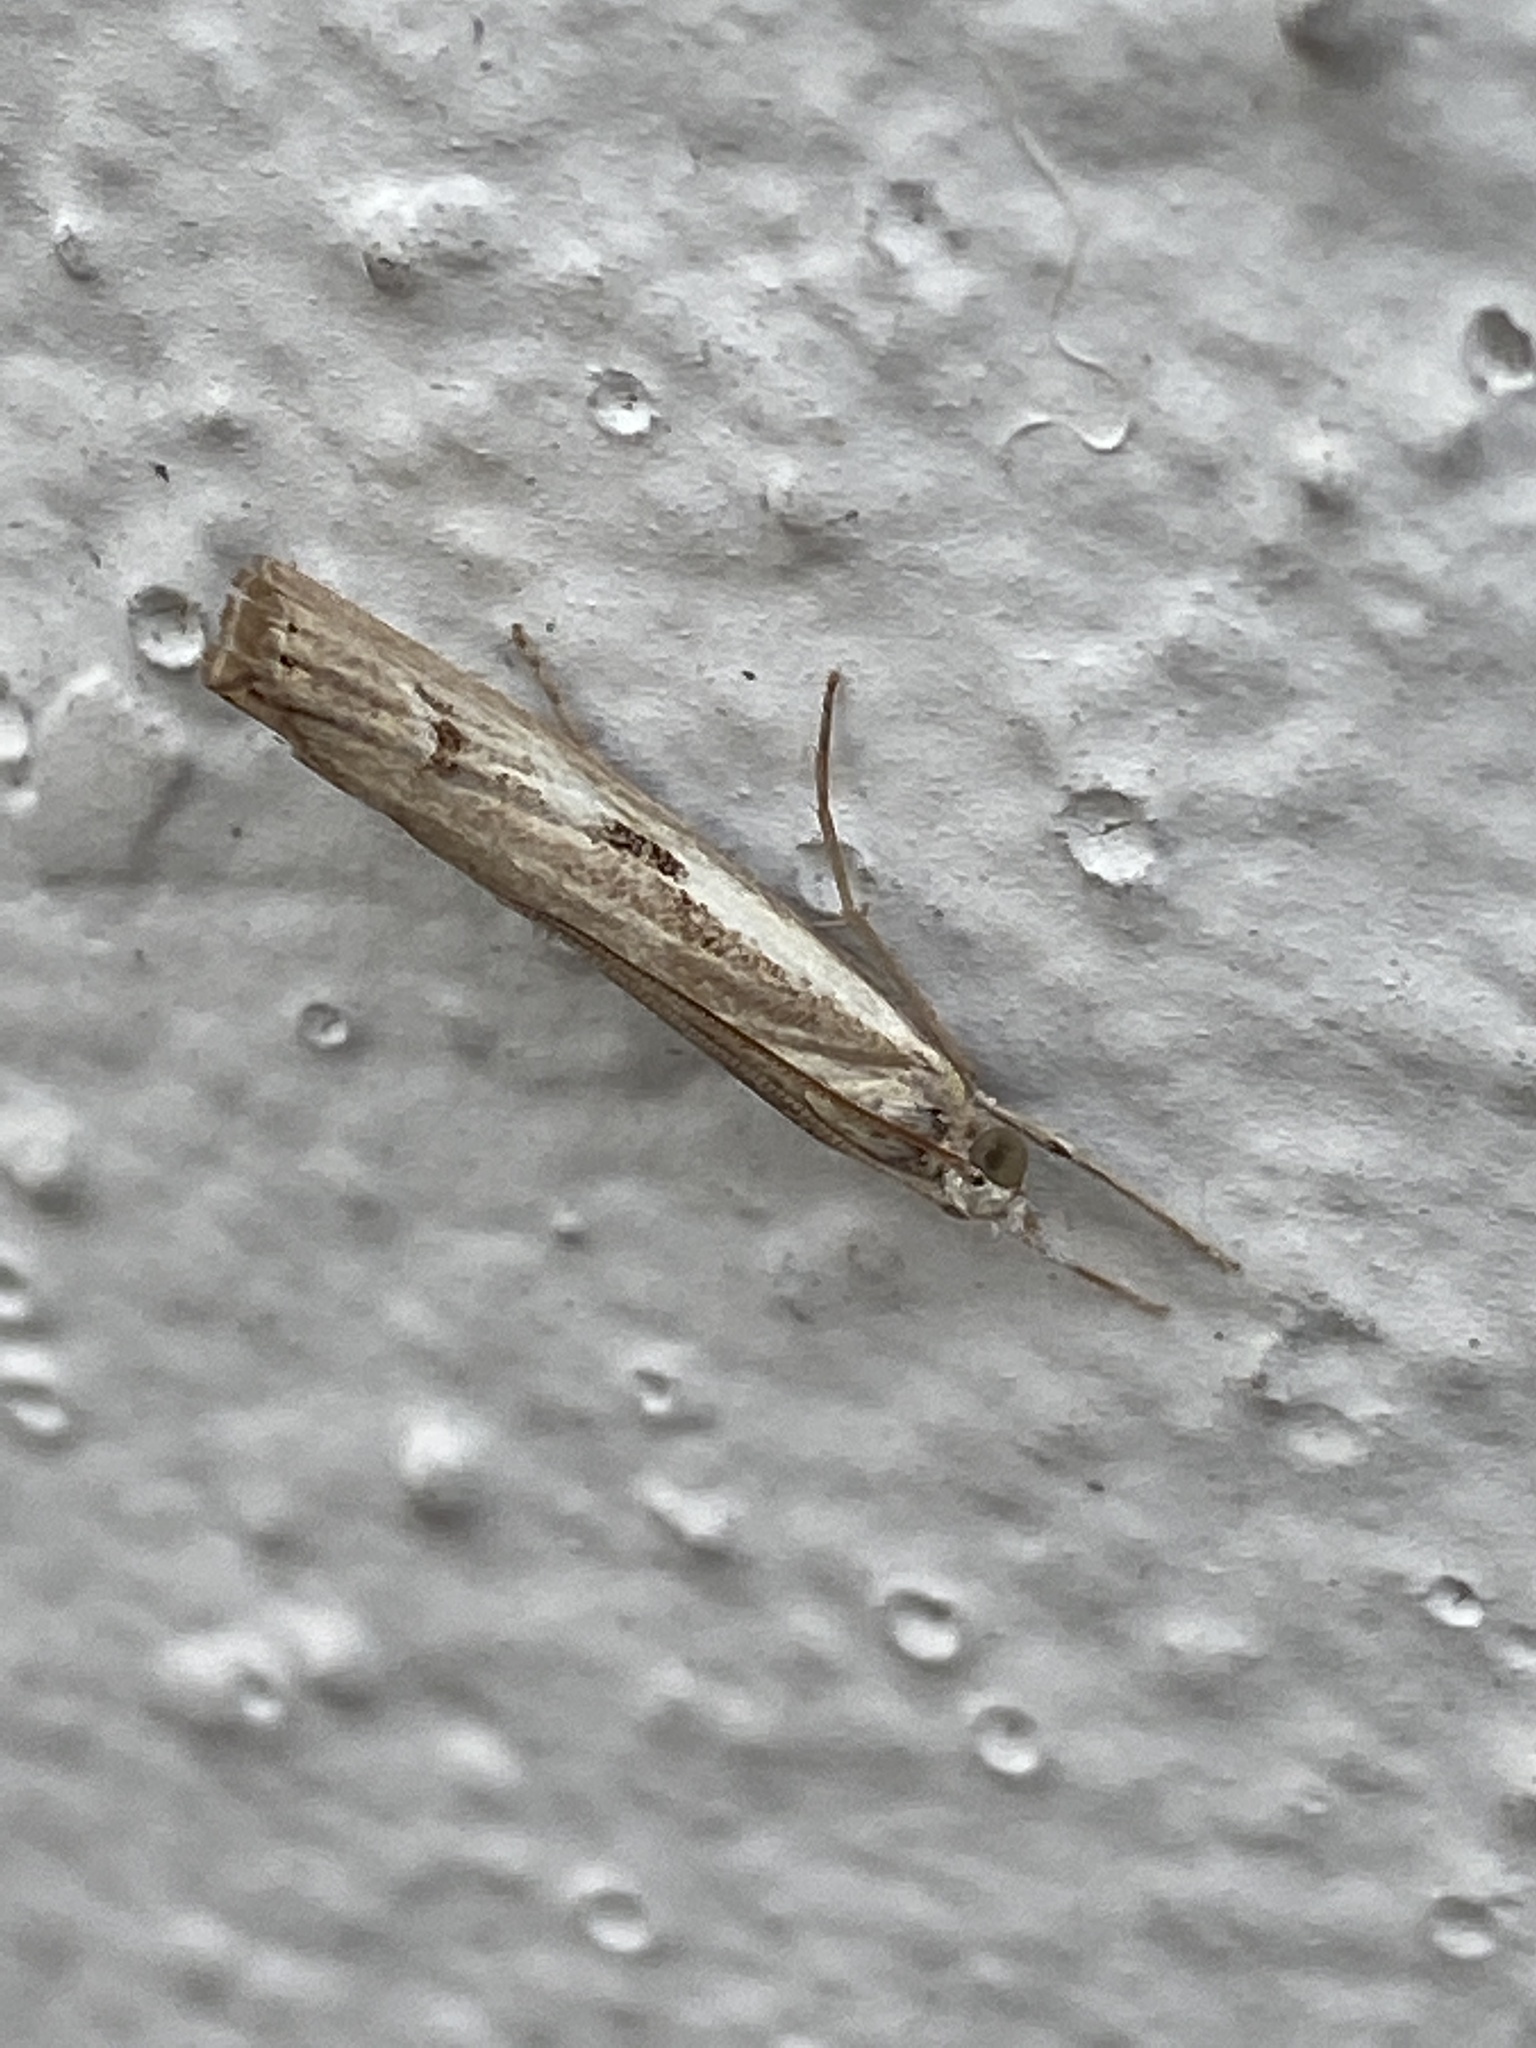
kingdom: Animalia
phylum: Arthropoda
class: Insecta
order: Lepidoptera
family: Crambidae
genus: Agriphila
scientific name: Agriphila geniculea
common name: Elbow-stripe grass-veneer
